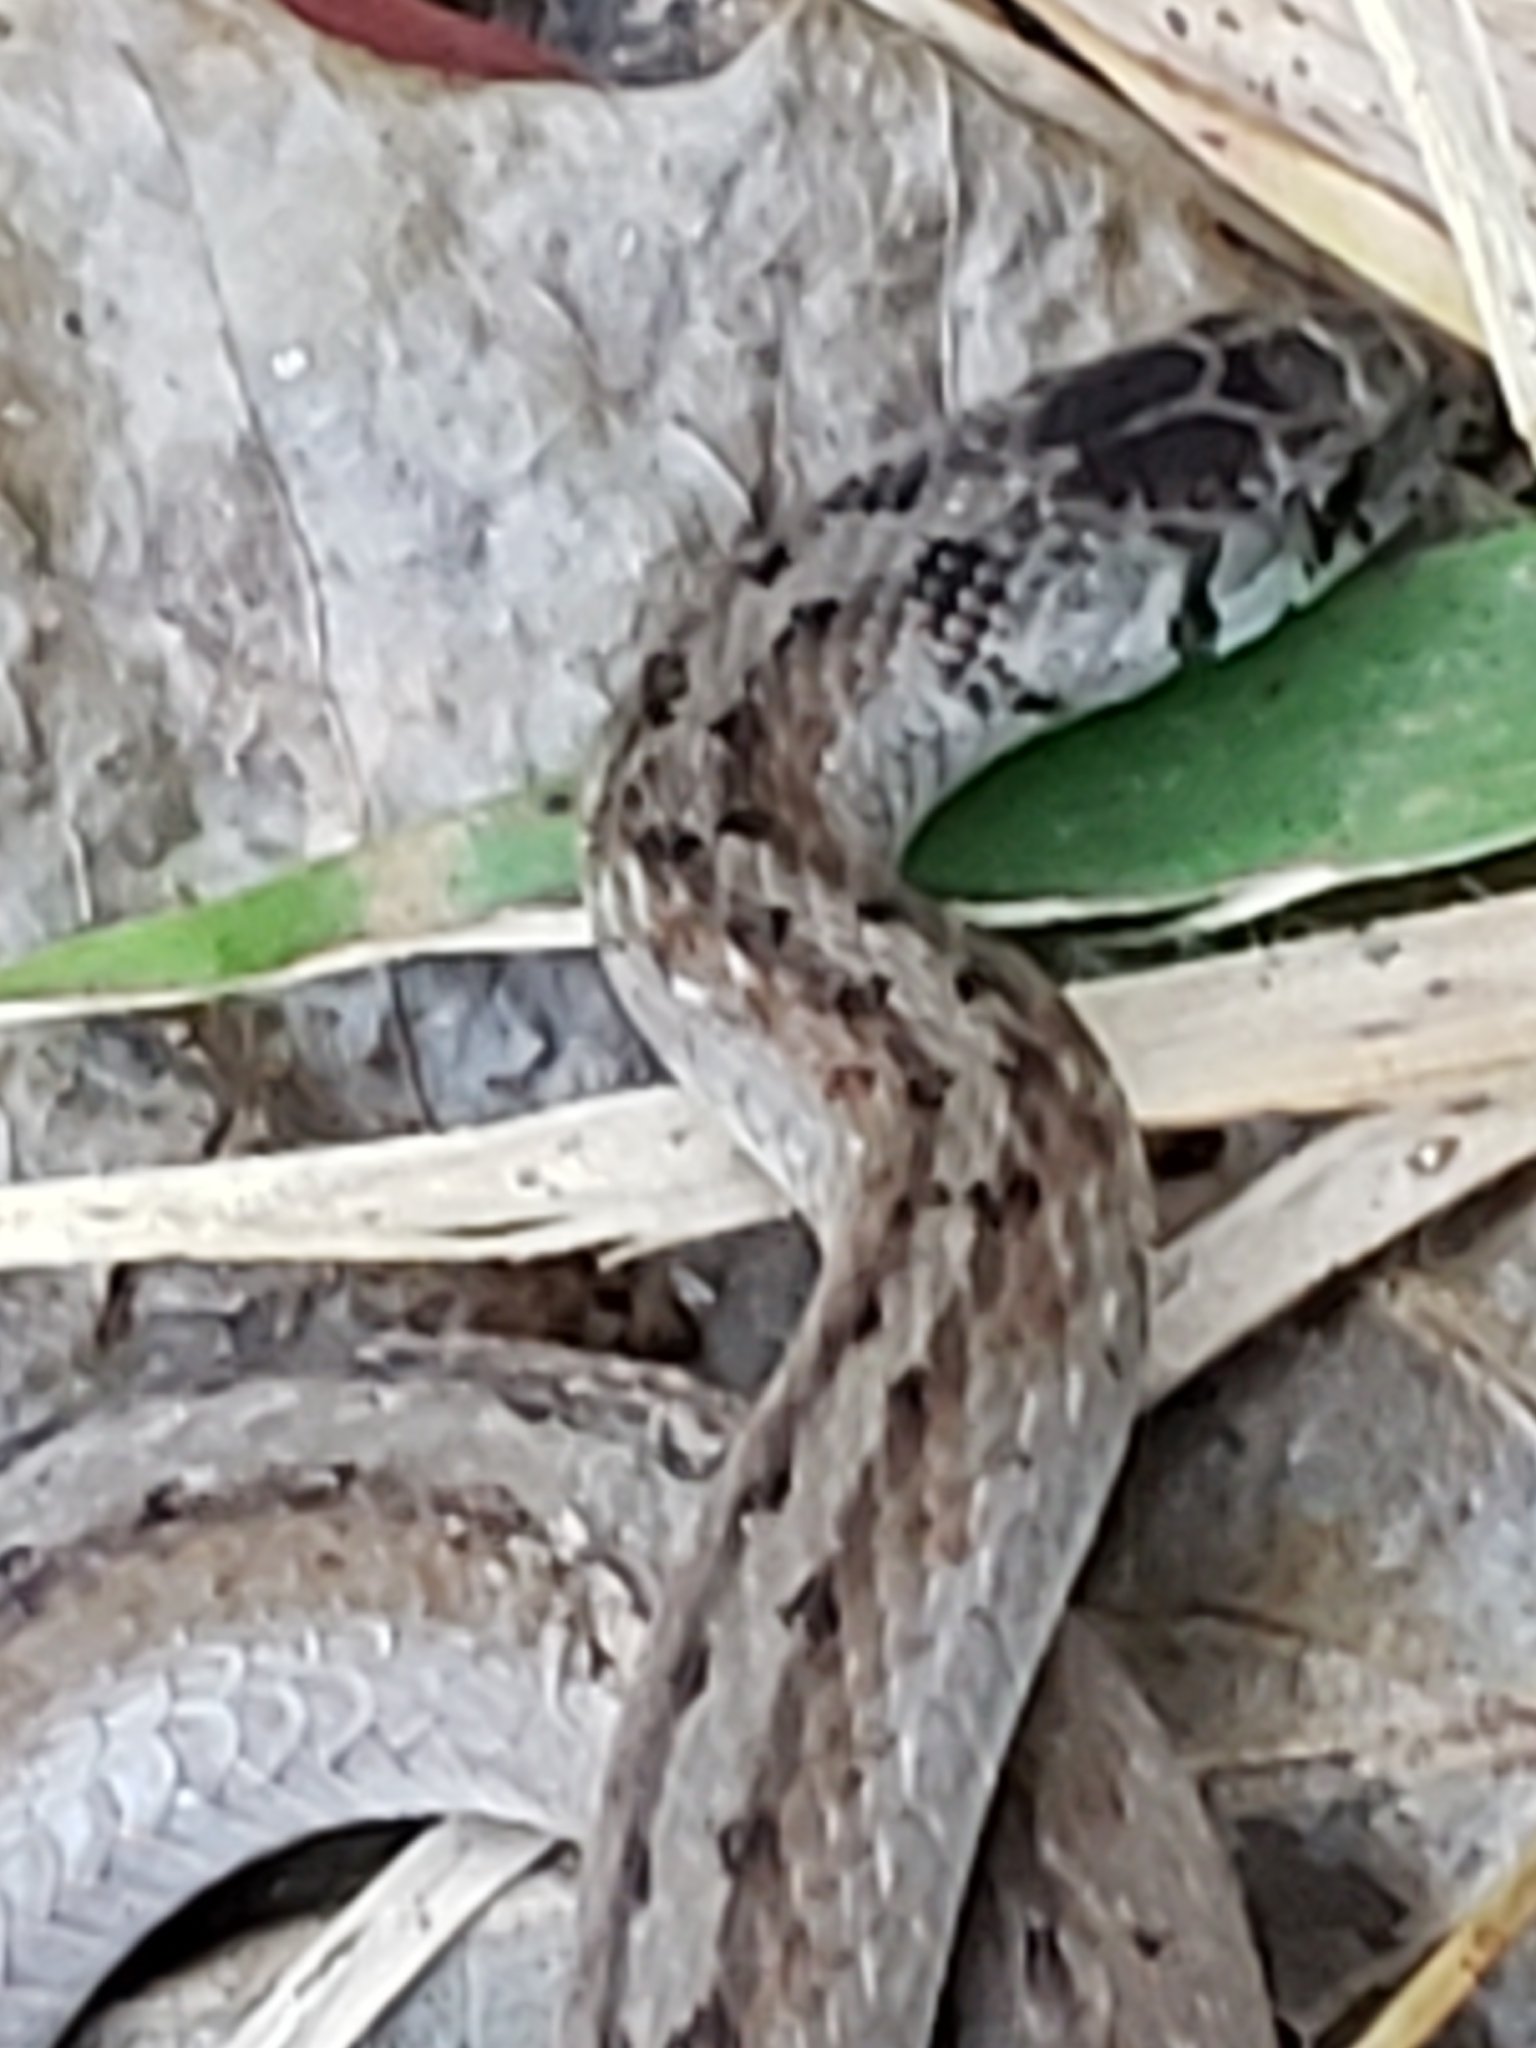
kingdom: Animalia
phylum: Chordata
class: Squamata
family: Colubridae
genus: Storeria
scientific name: Storeria dekayi
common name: (dekay’s) brown snake
